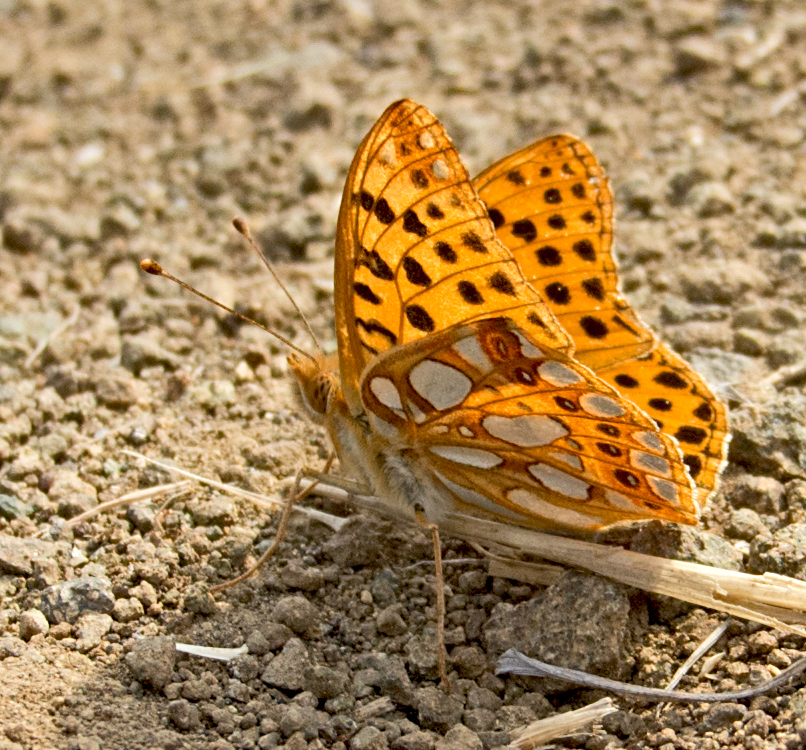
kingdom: Animalia
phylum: Arthropoda
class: Insecta
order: Lepidoptera
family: Nymphalidae
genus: Issoria
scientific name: Issoria lathonia
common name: Queen of spain fritillary
